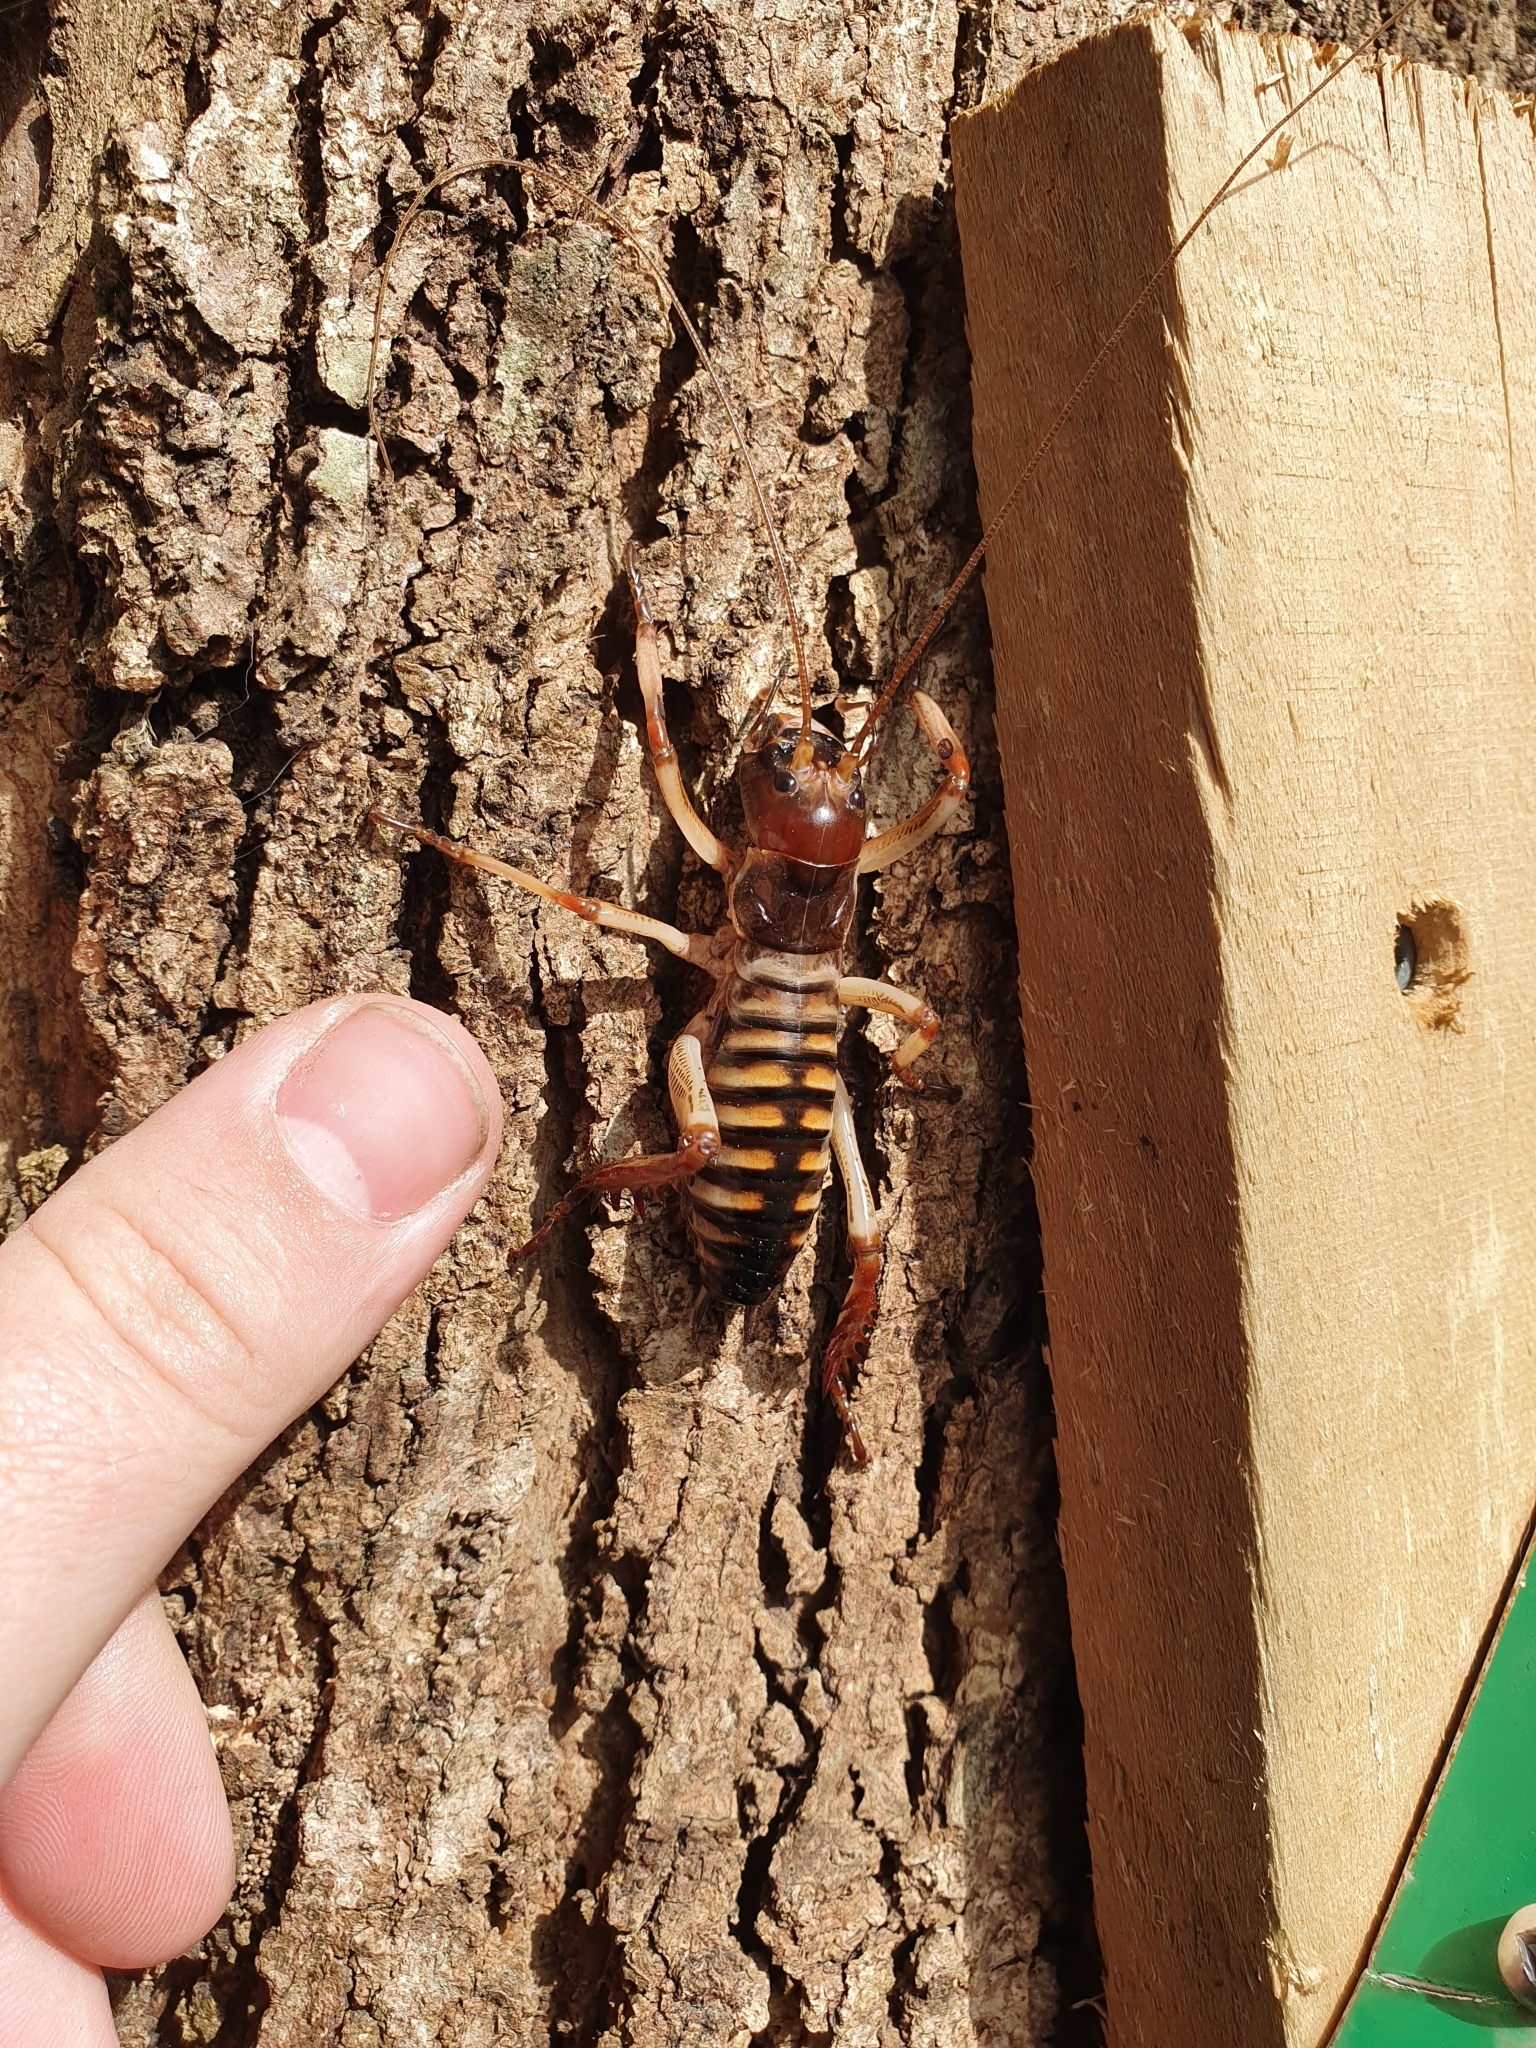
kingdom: Animalia
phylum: Arthropoda
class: Insecta
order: Orthoptera
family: Anostostomatidae
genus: Hemideina
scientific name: Hemideina crassidens
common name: Wellington tree weta
